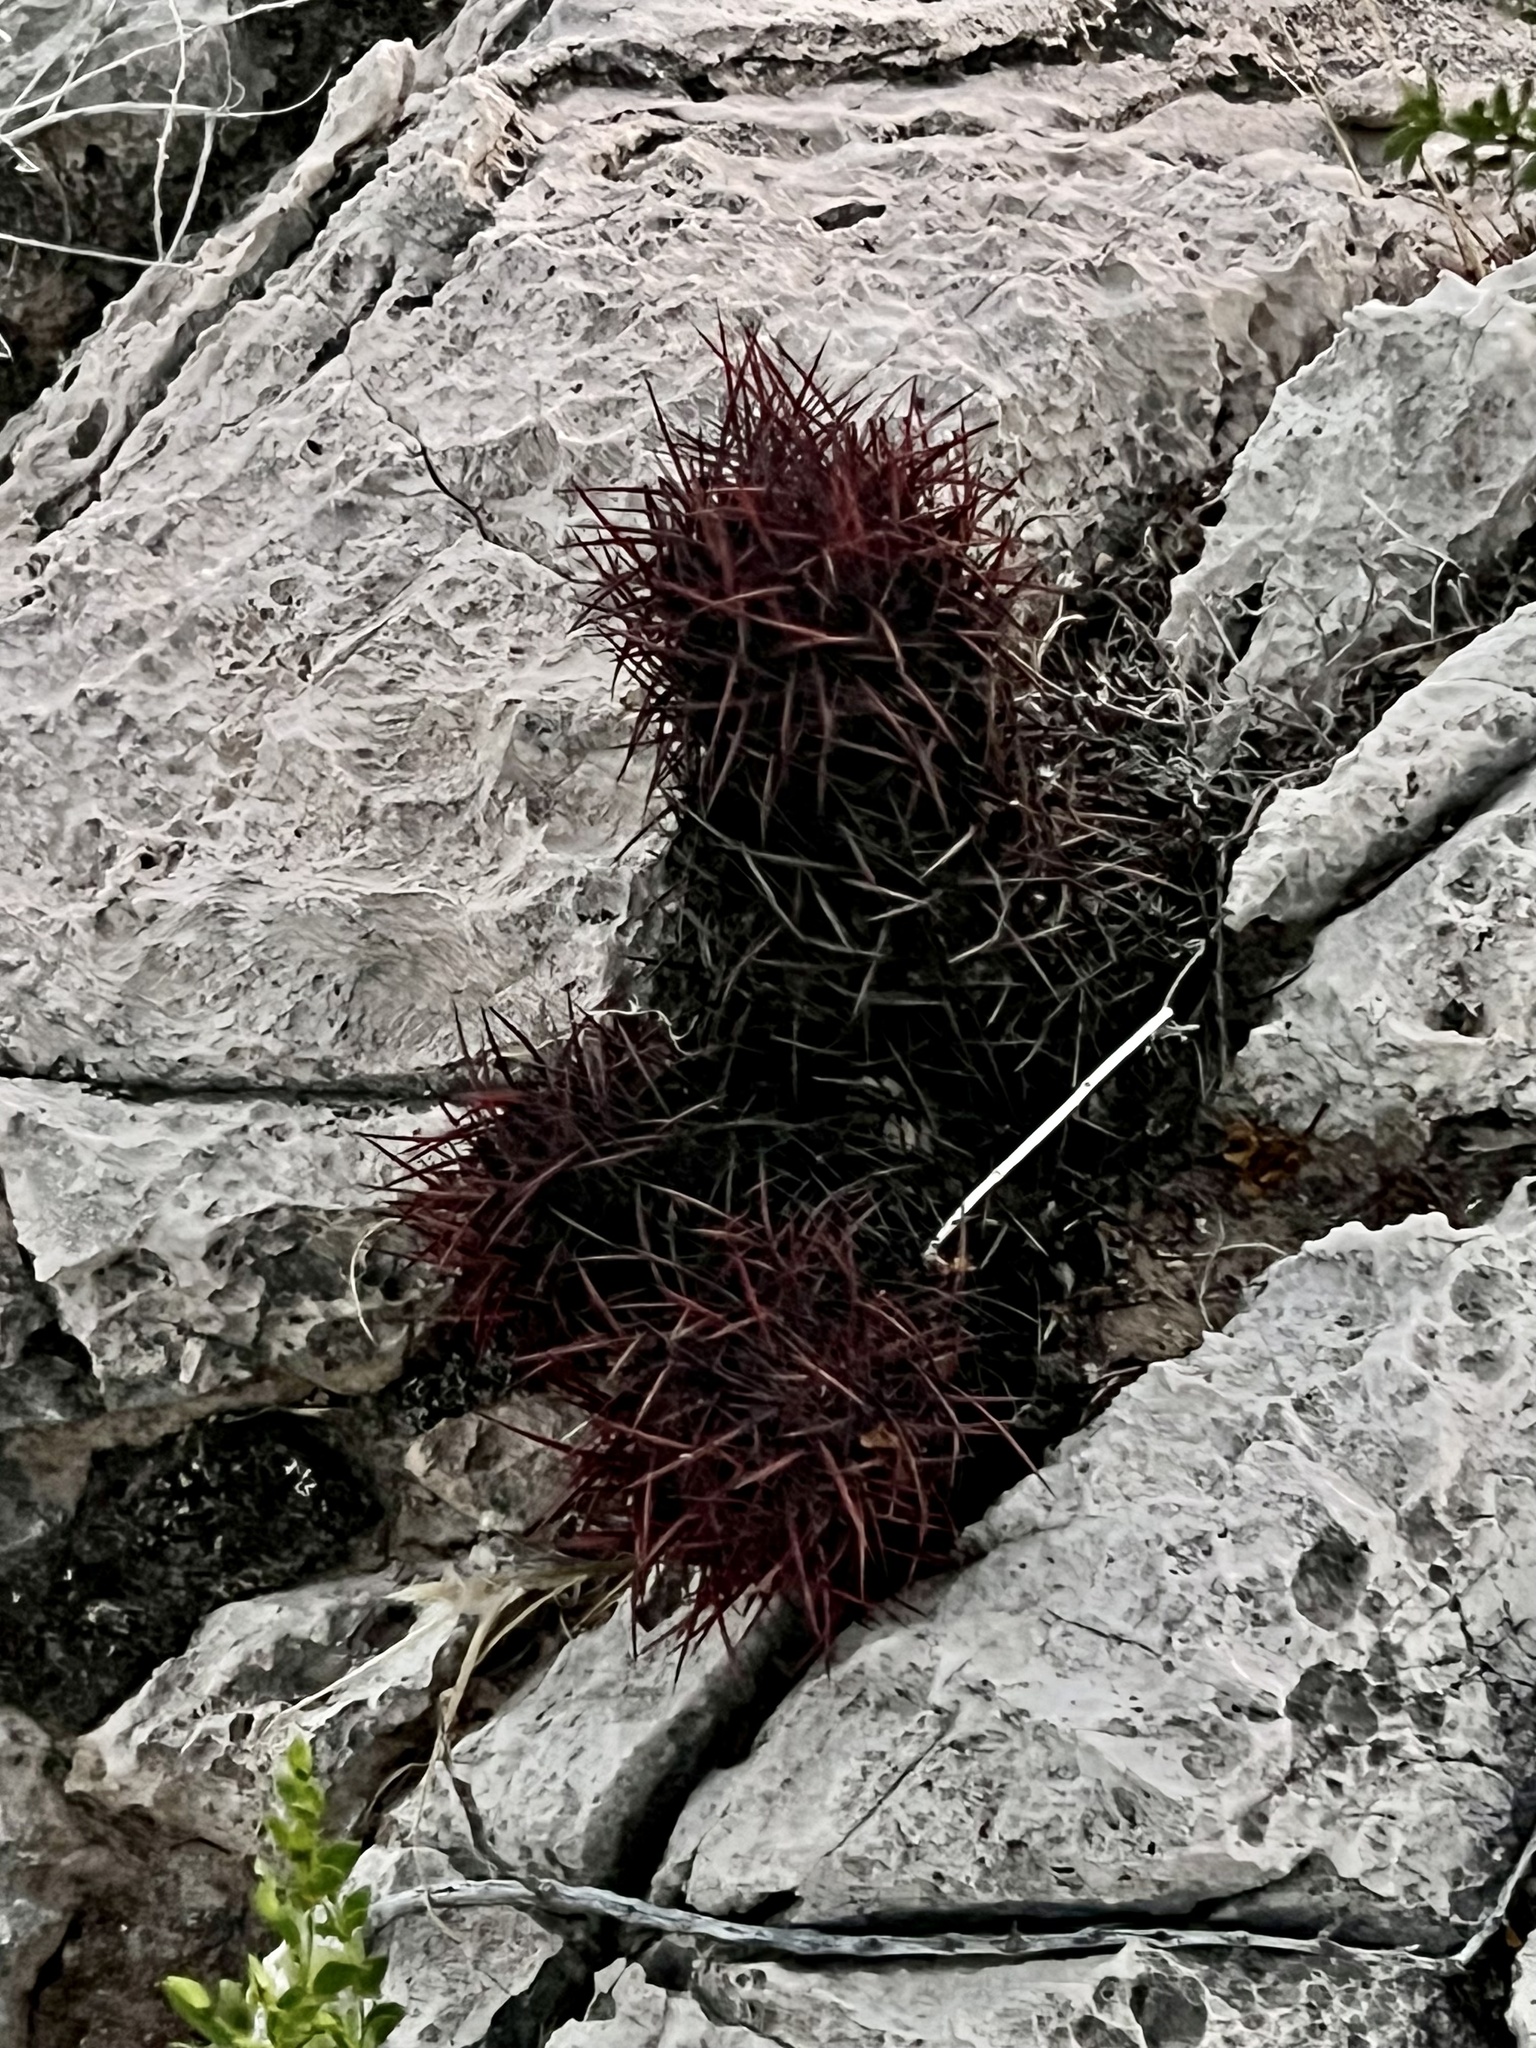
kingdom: Plantae
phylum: Tracheophyta
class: Magnoliopsida
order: Caryophyllales
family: Cactaceae
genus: Sclerocactus
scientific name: Sclerocactus johnsonii
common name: Eight-spine fishhook cactus
